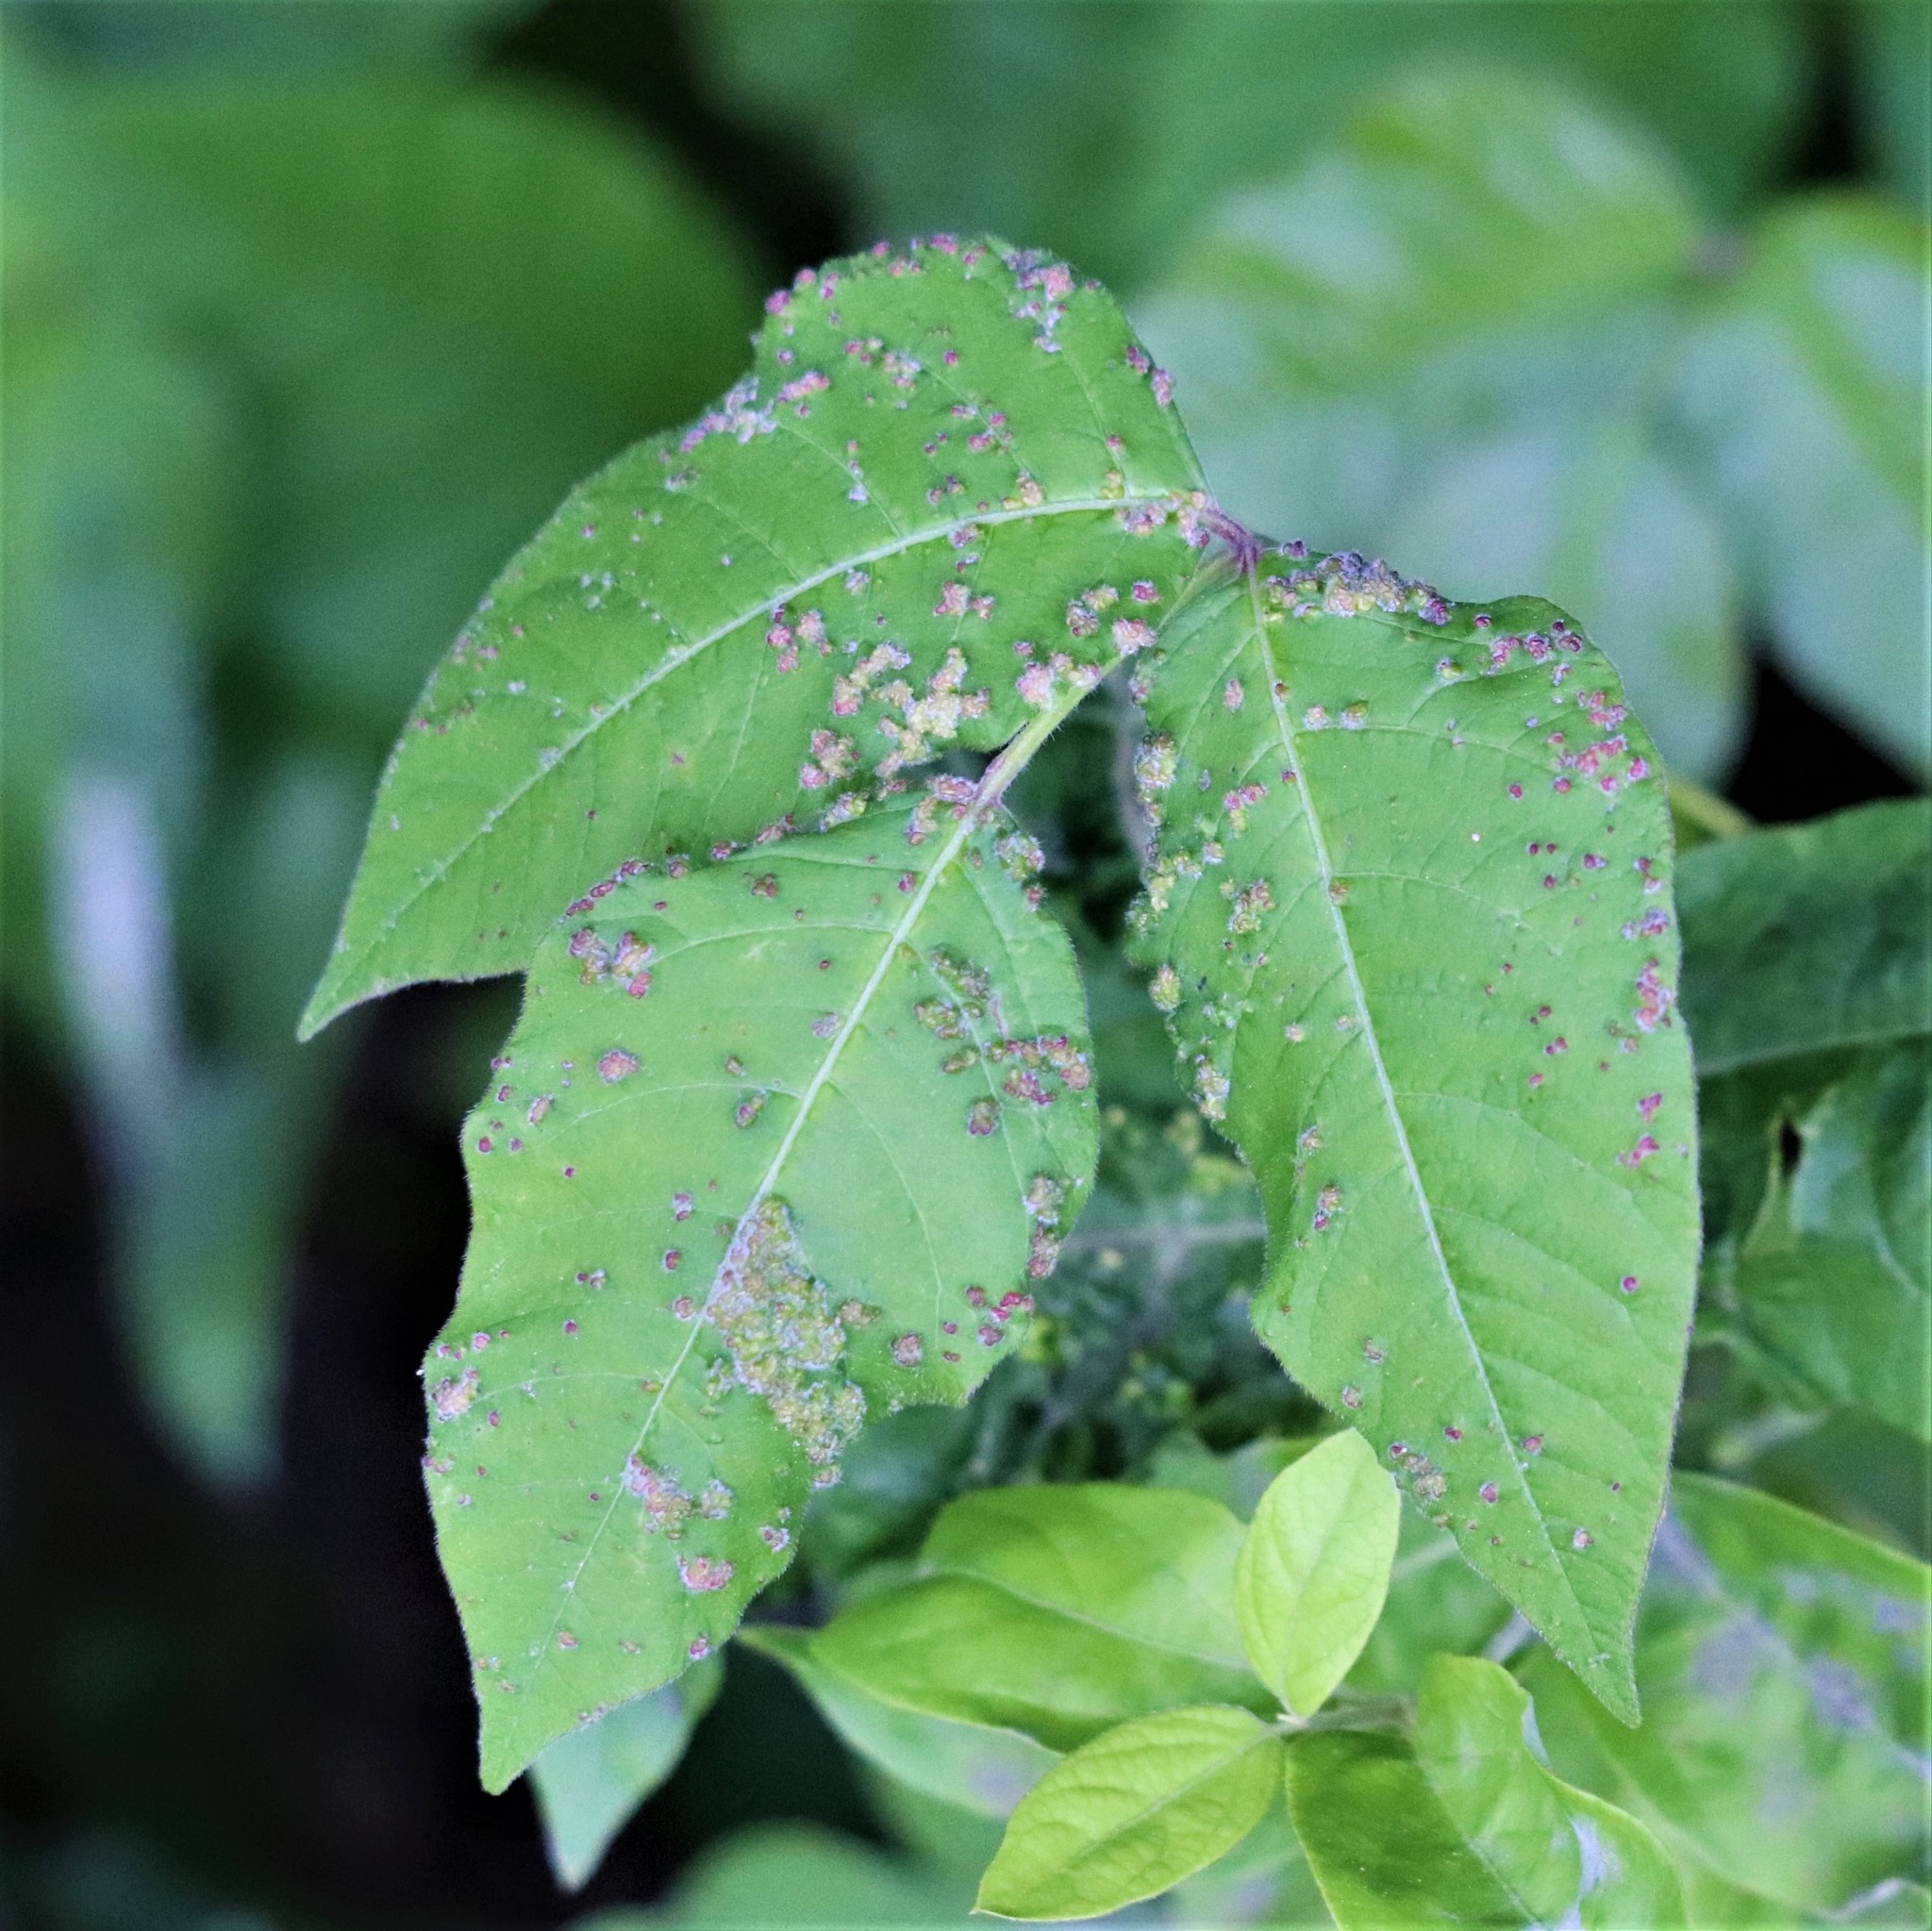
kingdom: Animalia
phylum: Arthropoda
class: Arachnida
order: Trombidiformes
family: Eriophyidae
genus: Aculops
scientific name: Aculops
